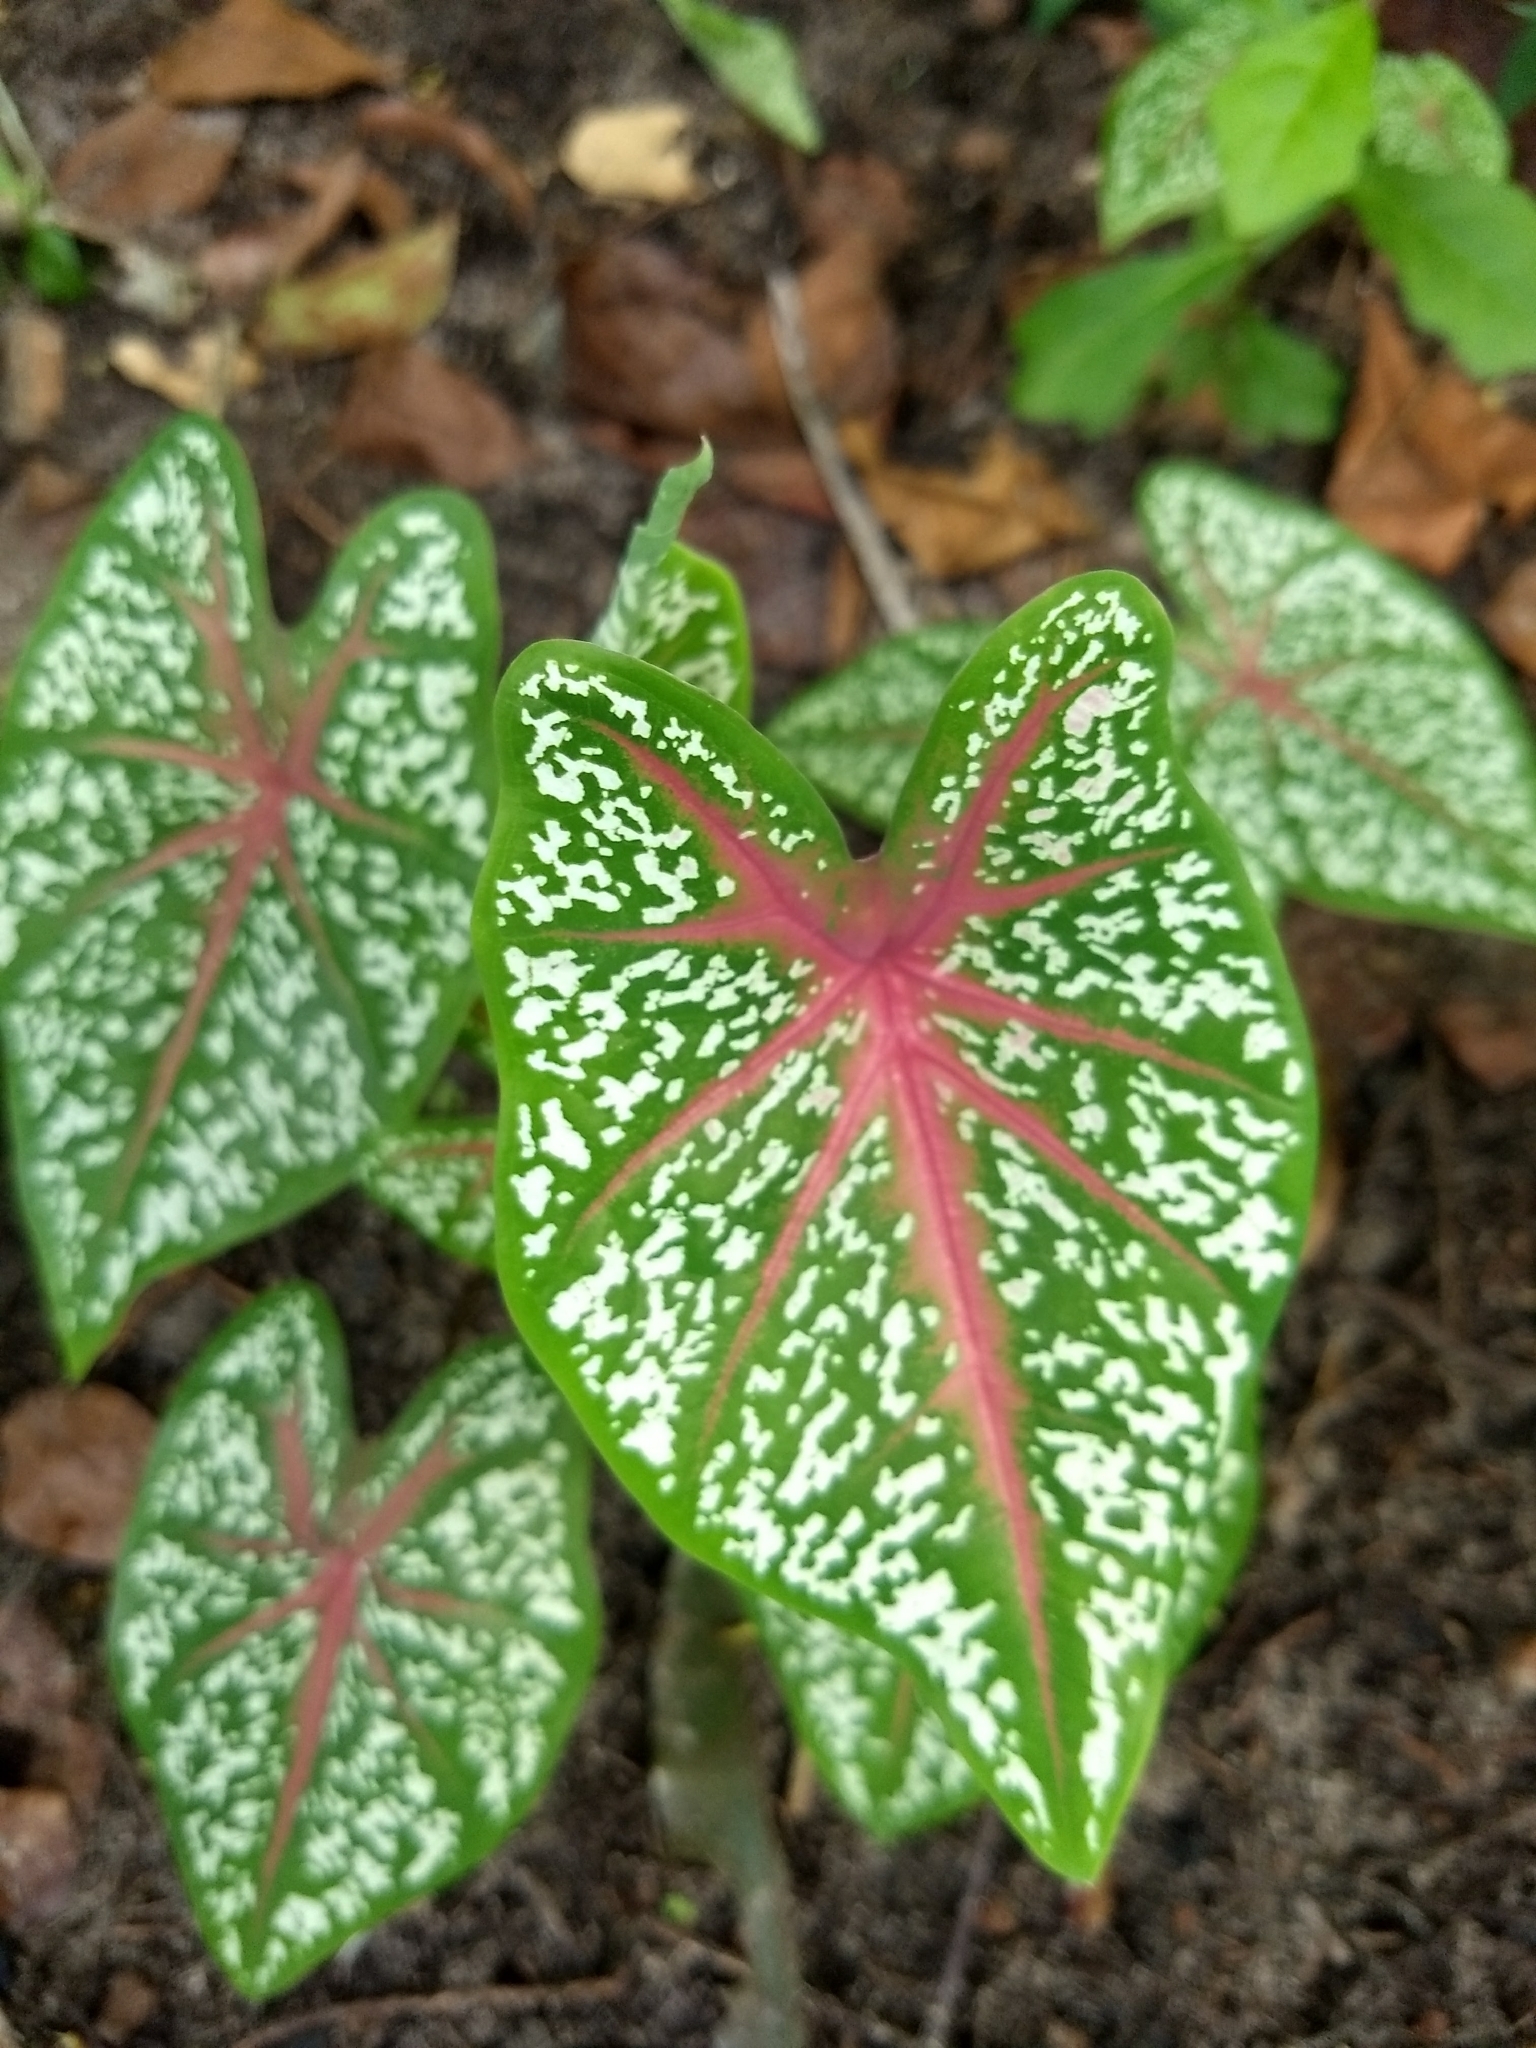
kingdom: Plantae
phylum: Tracheophyta
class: Liliopsida
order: Alismatales
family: Araceae
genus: Caladium
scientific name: Caladium bicolor
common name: Artist's pallet
